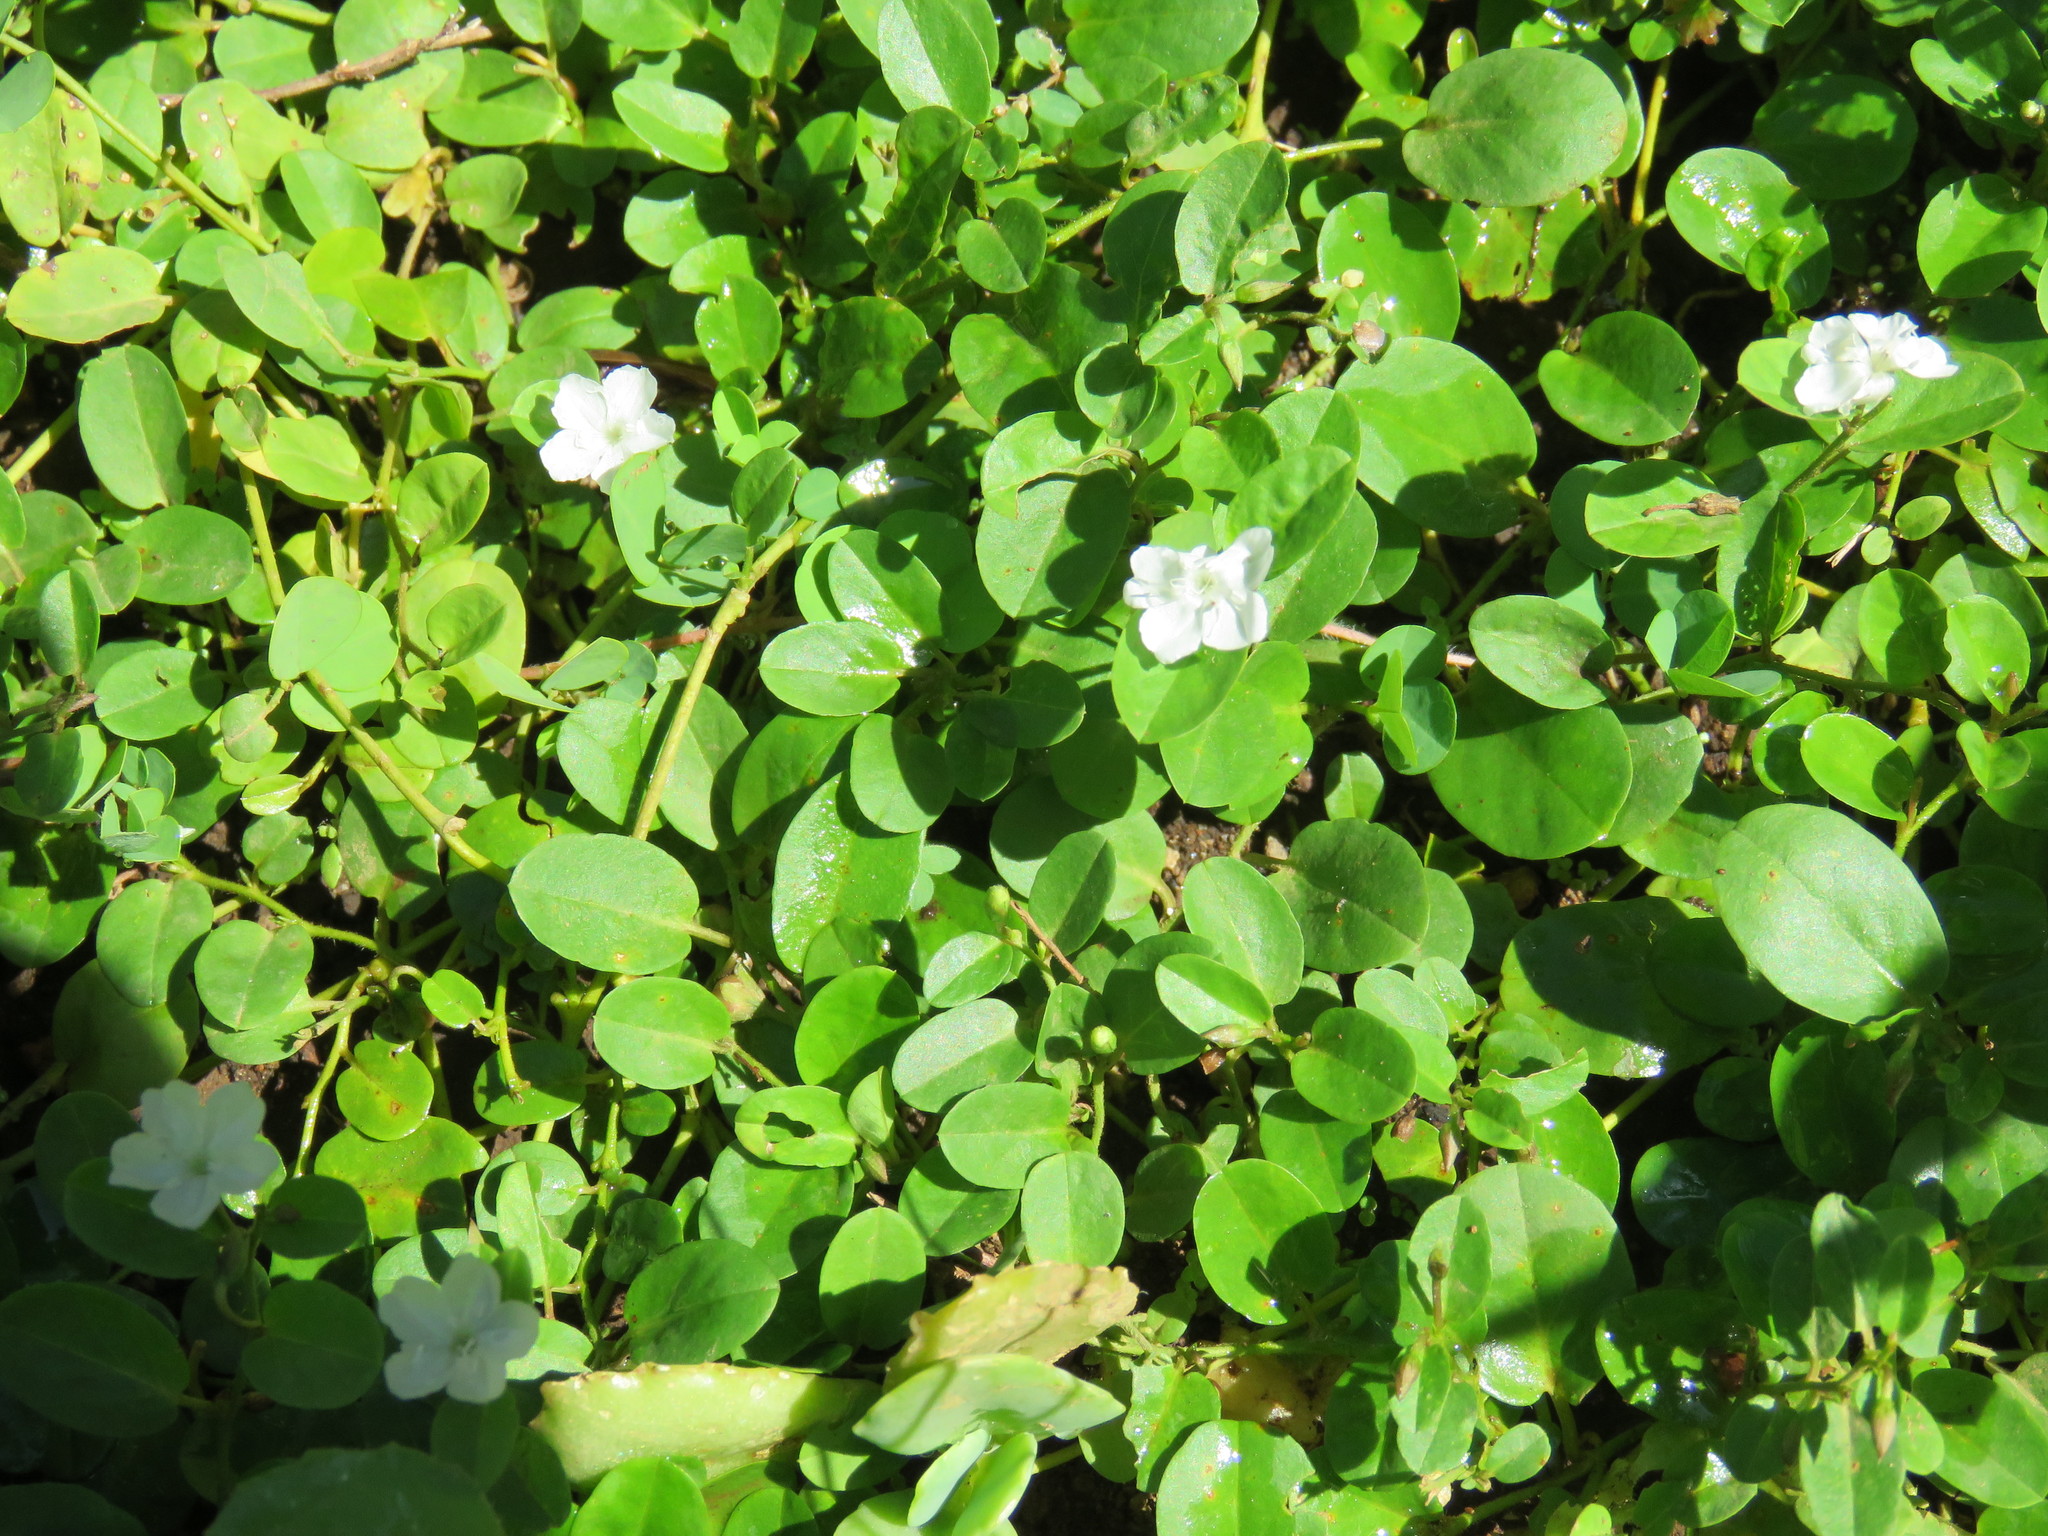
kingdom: Plantae
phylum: Tracheophyta
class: Magnoliopsida
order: Solanales
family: Convolvulaceae
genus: Evolvulus
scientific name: Evolvulus nummularius
